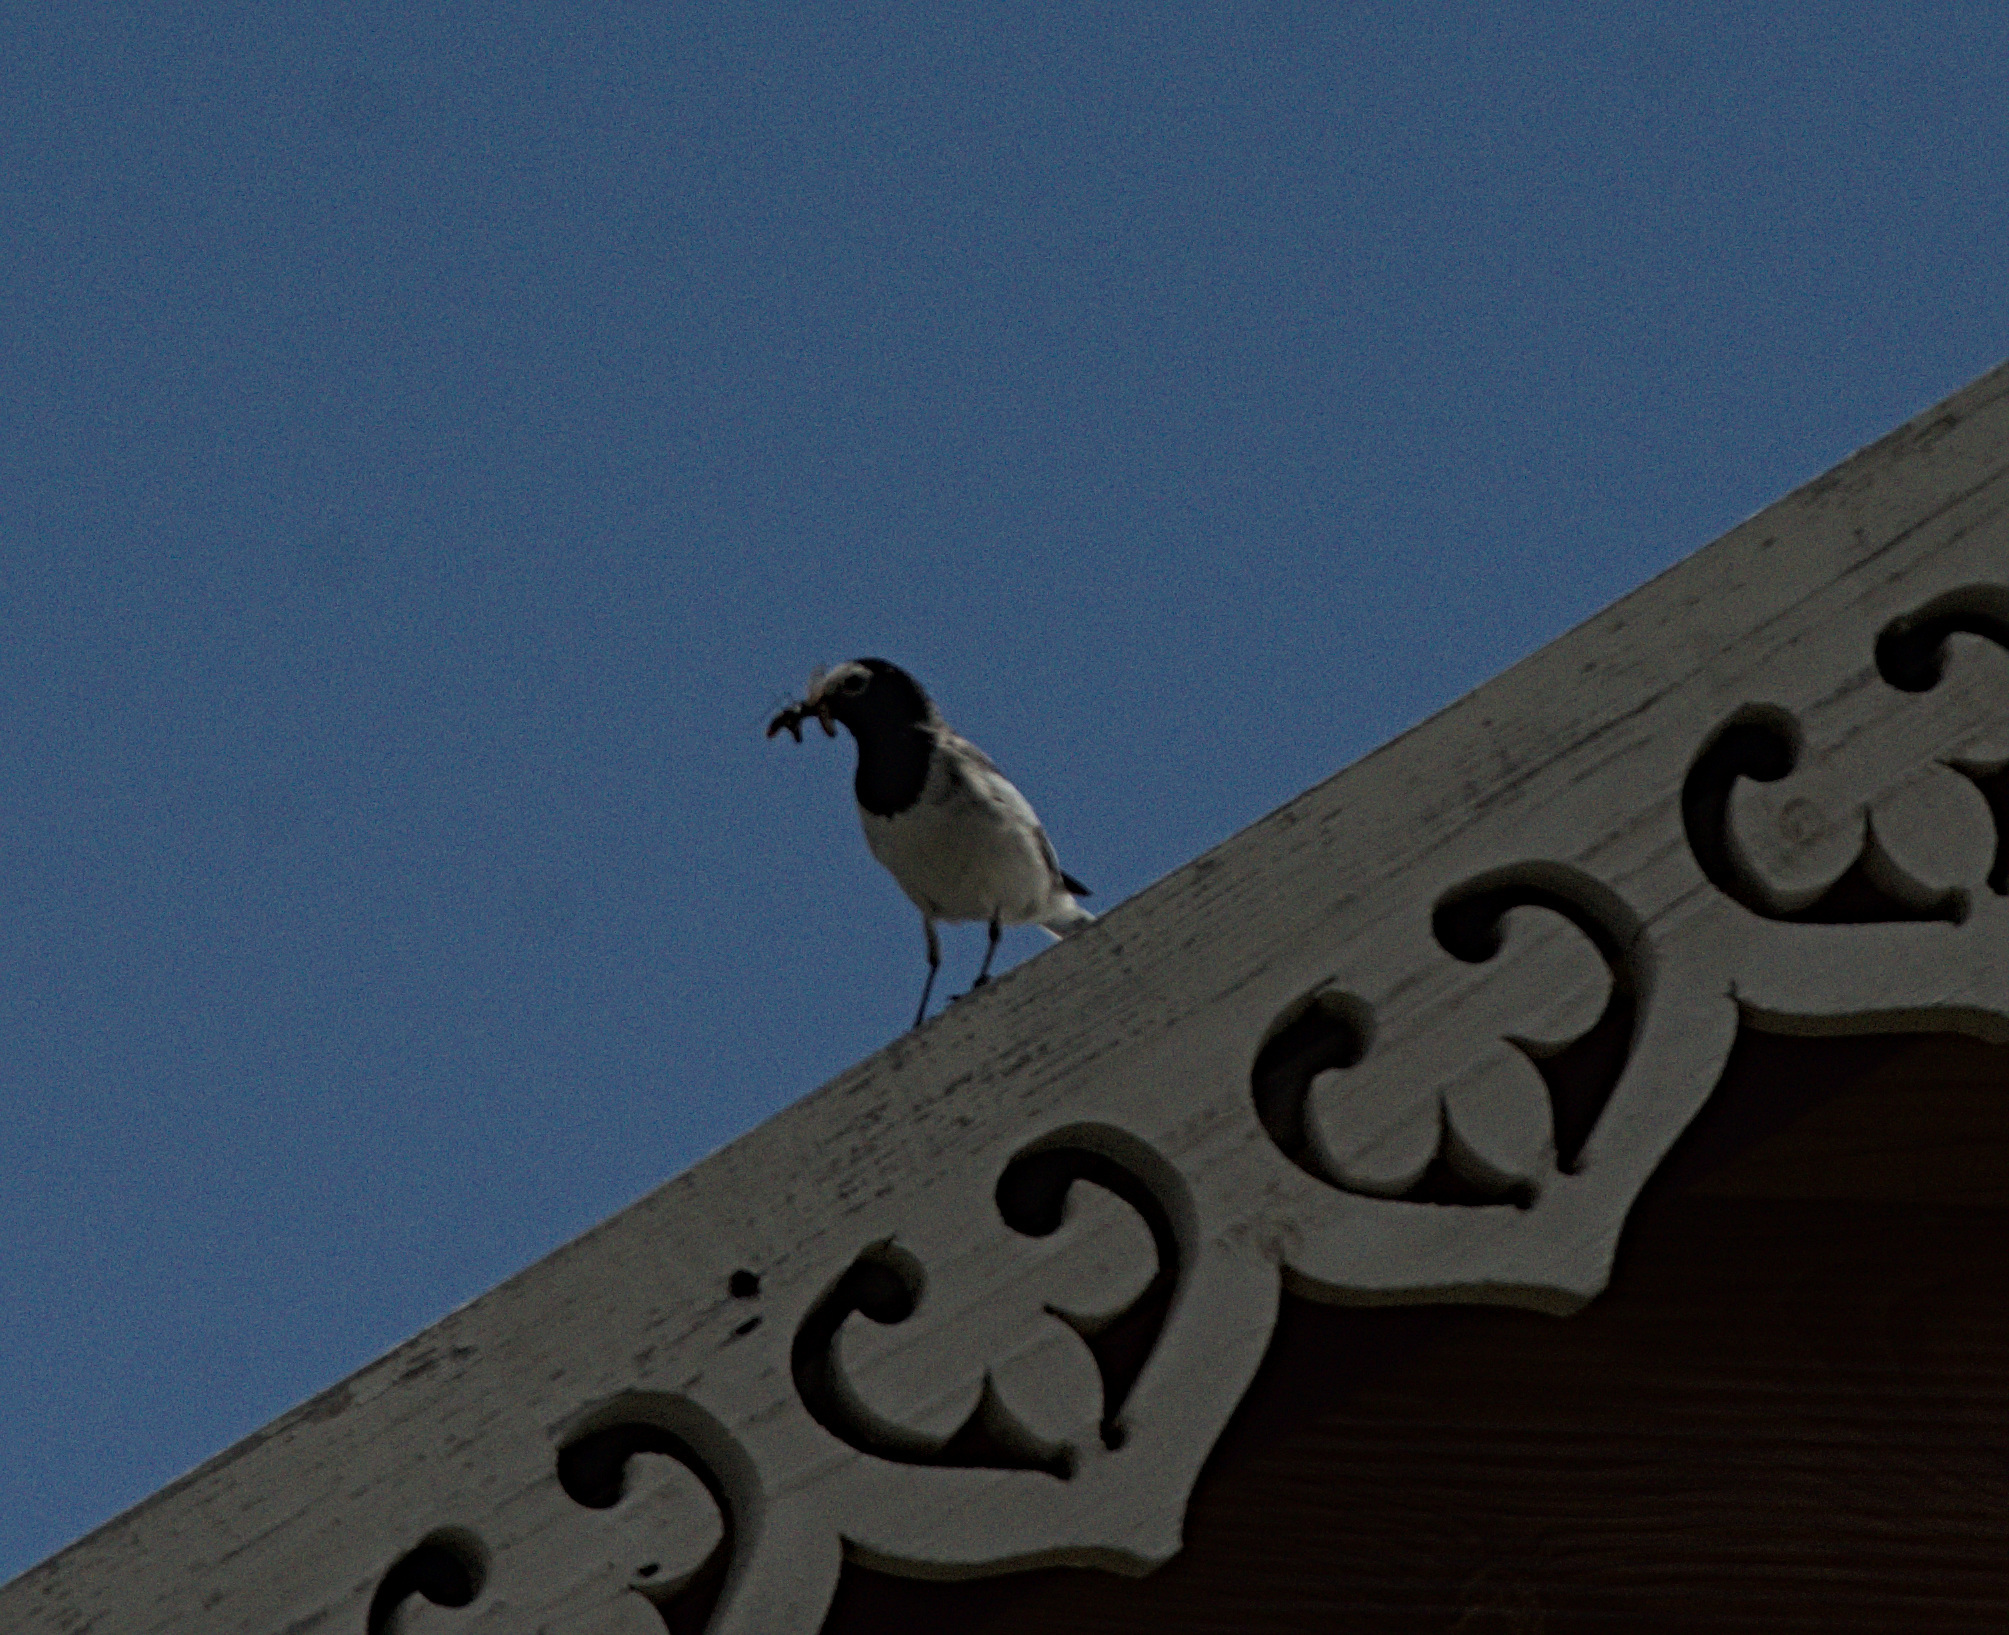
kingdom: Animalia
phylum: Chordata
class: Aves
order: Passeriformes
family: Motacillidae
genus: Motacilla
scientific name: Motacilla alba
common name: White wagtail
